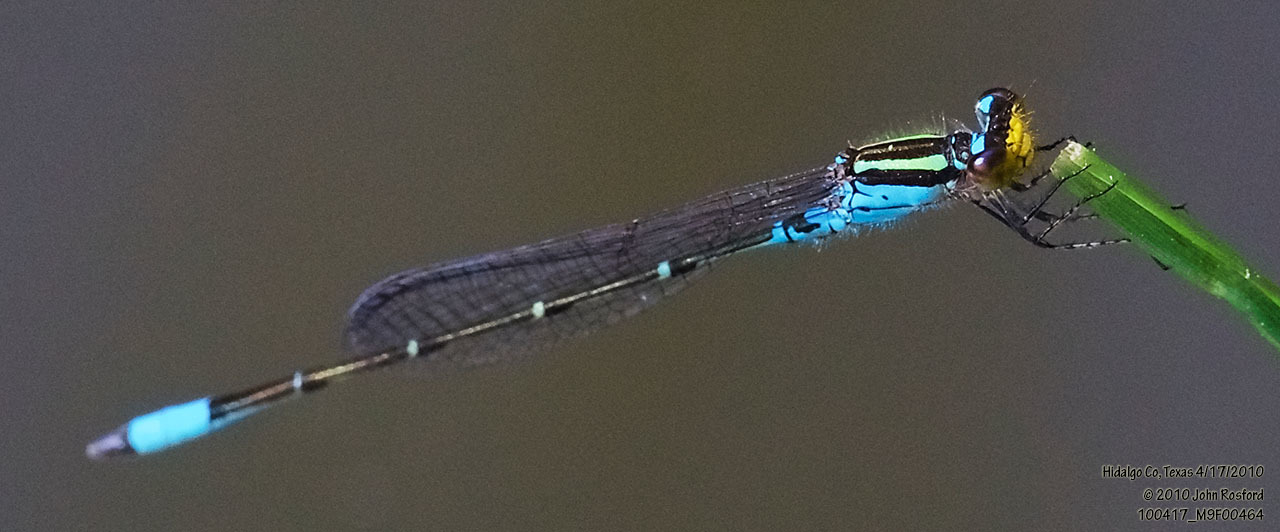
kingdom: Animalia
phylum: Arthropoda
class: Insecta
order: Odonata
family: Coenagrionidae
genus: Neoerythromma
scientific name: Neoerythromma cultellatum
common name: Caribbean yellowface
